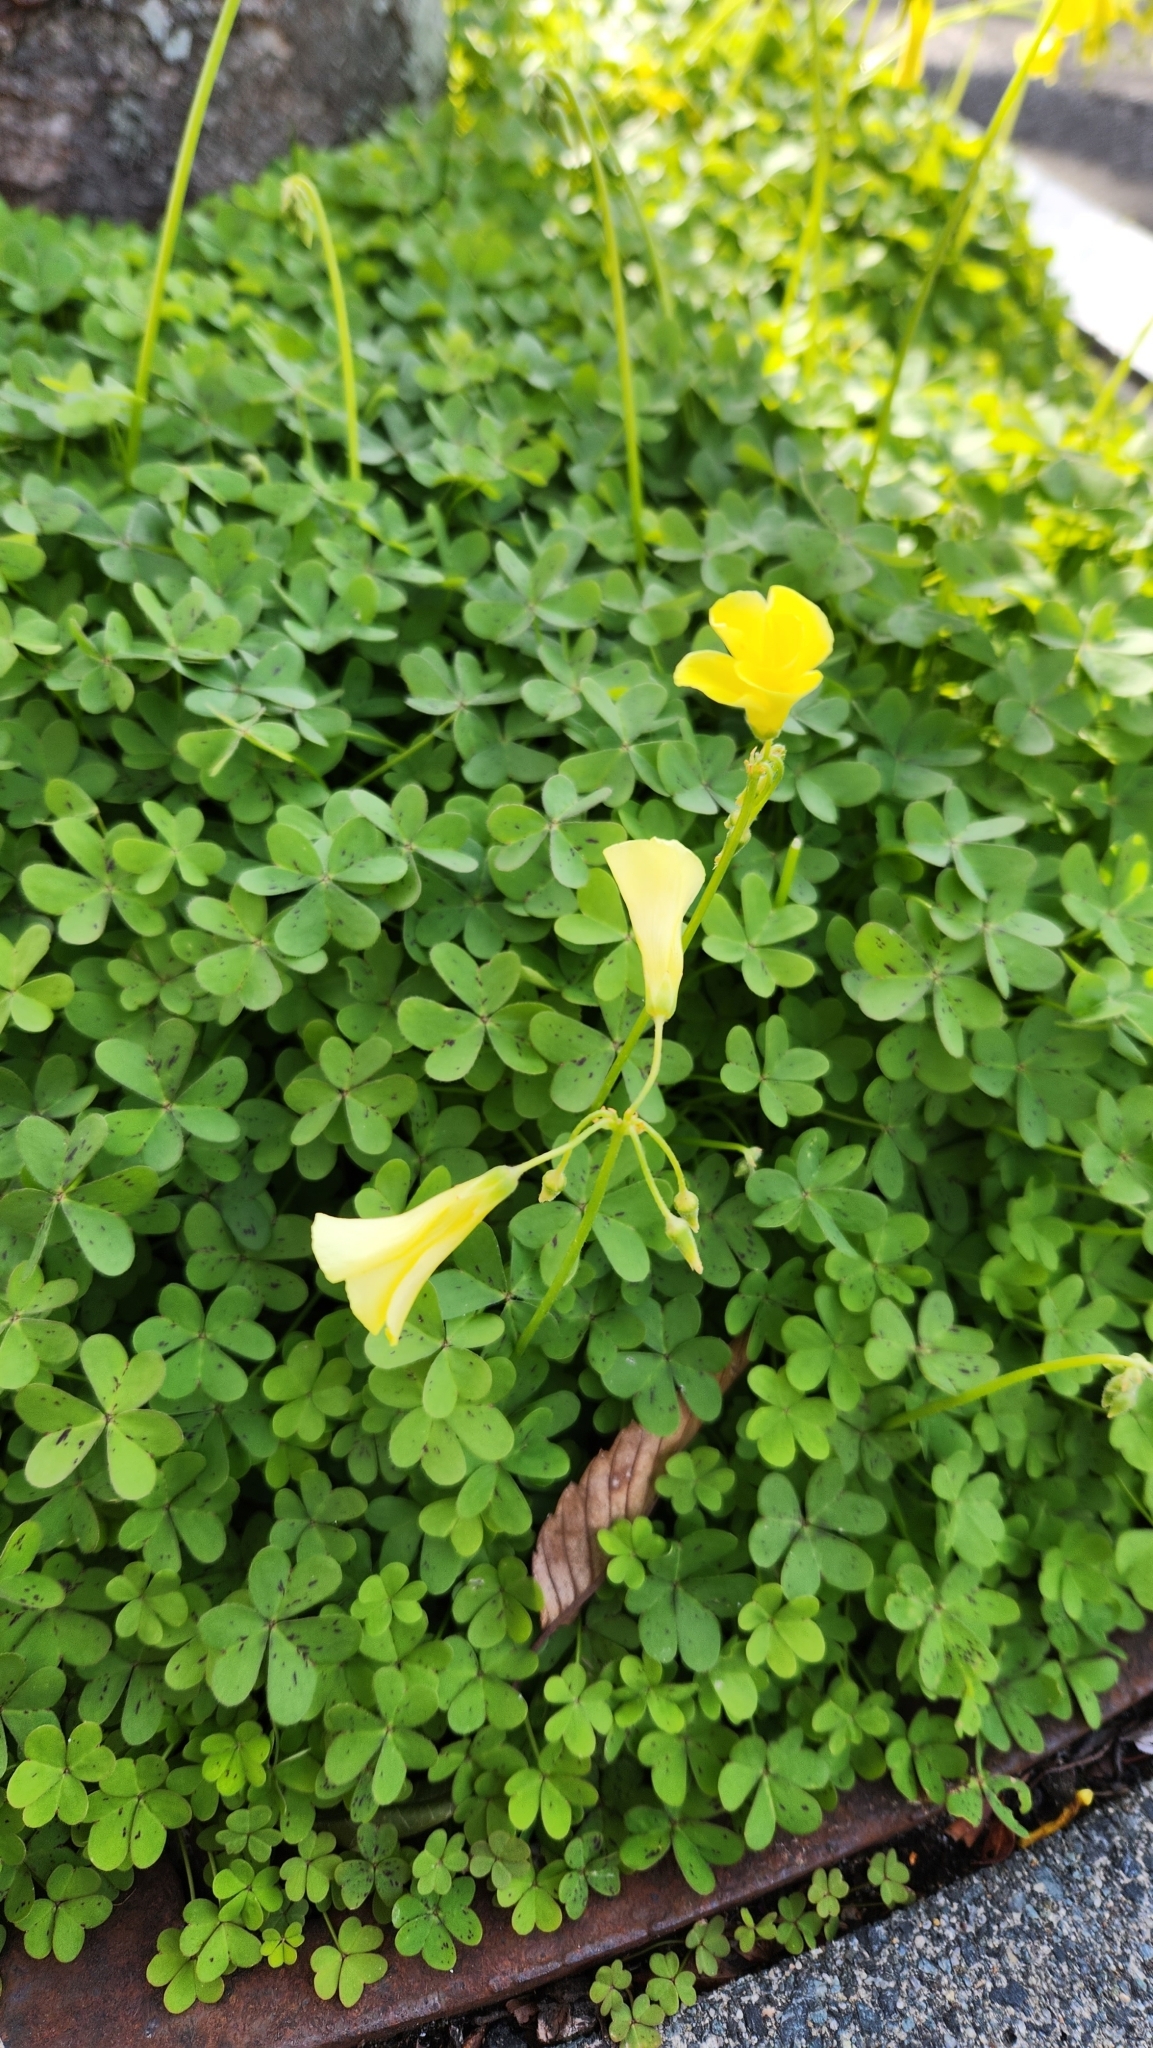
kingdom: Plantae
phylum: Tracheophyta
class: Magnoliopsida
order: Oxalidales
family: Oxalidaceae
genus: Oxalis
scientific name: Oxalis pes-caprae
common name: Bermuda-buttercup
